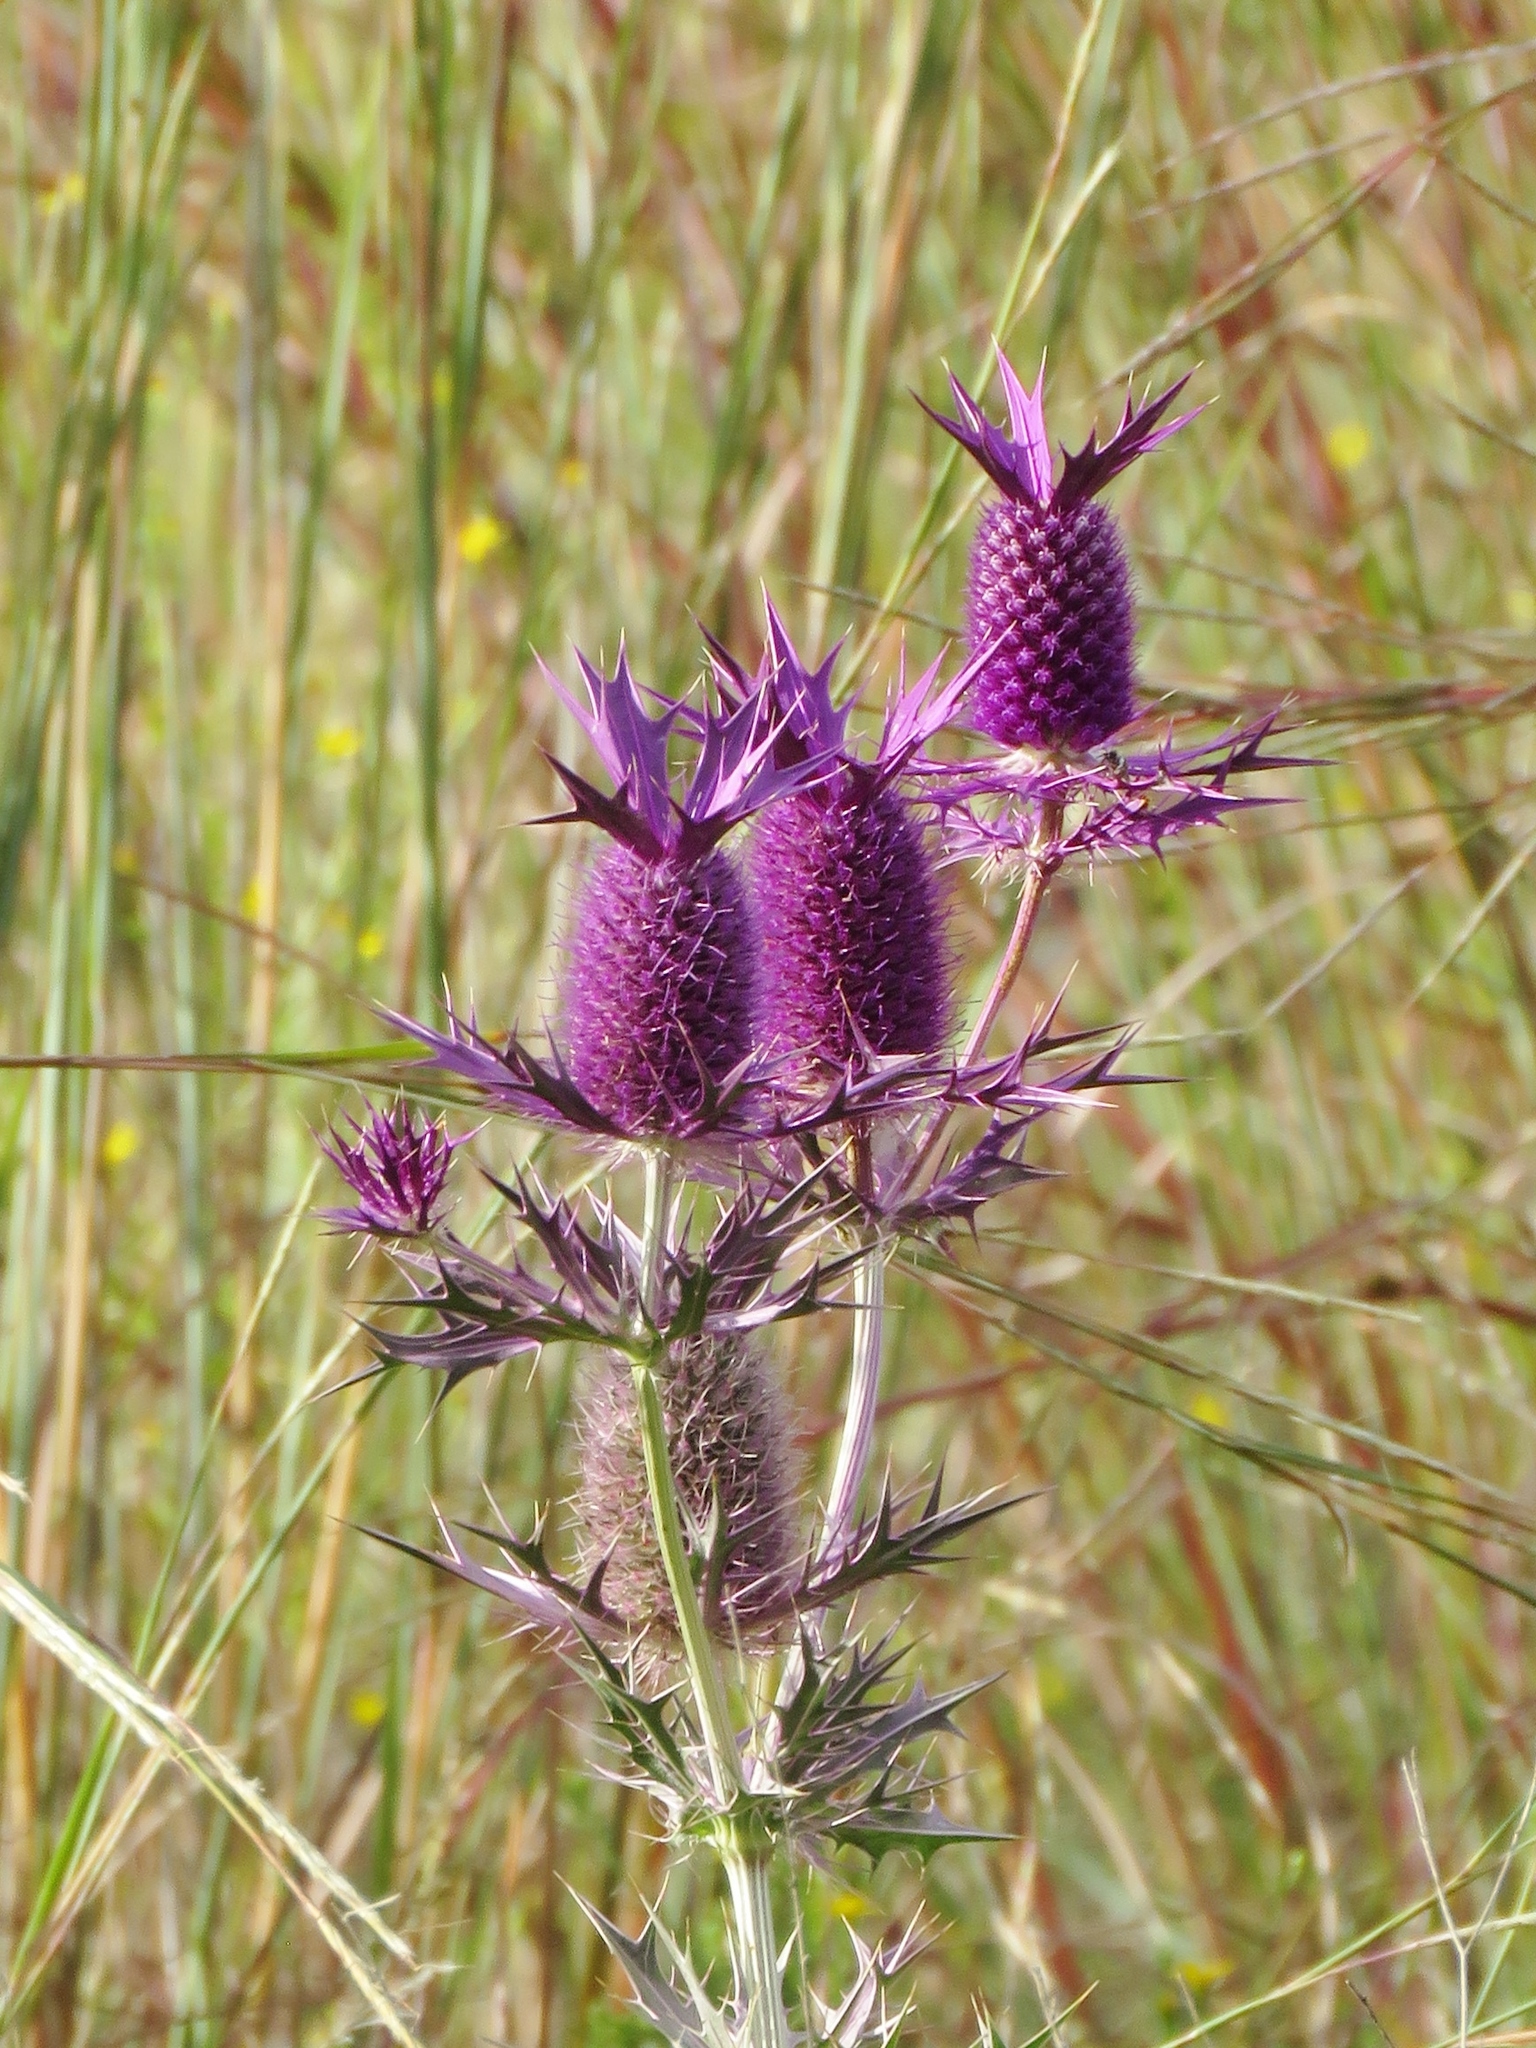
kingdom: Plantae
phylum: Tracheophyta
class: Magnoliopsida
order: Apiales
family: Apiaceae
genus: Eryngium
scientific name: Eryngium leavenworthii
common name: Leavenworth's eryngo
